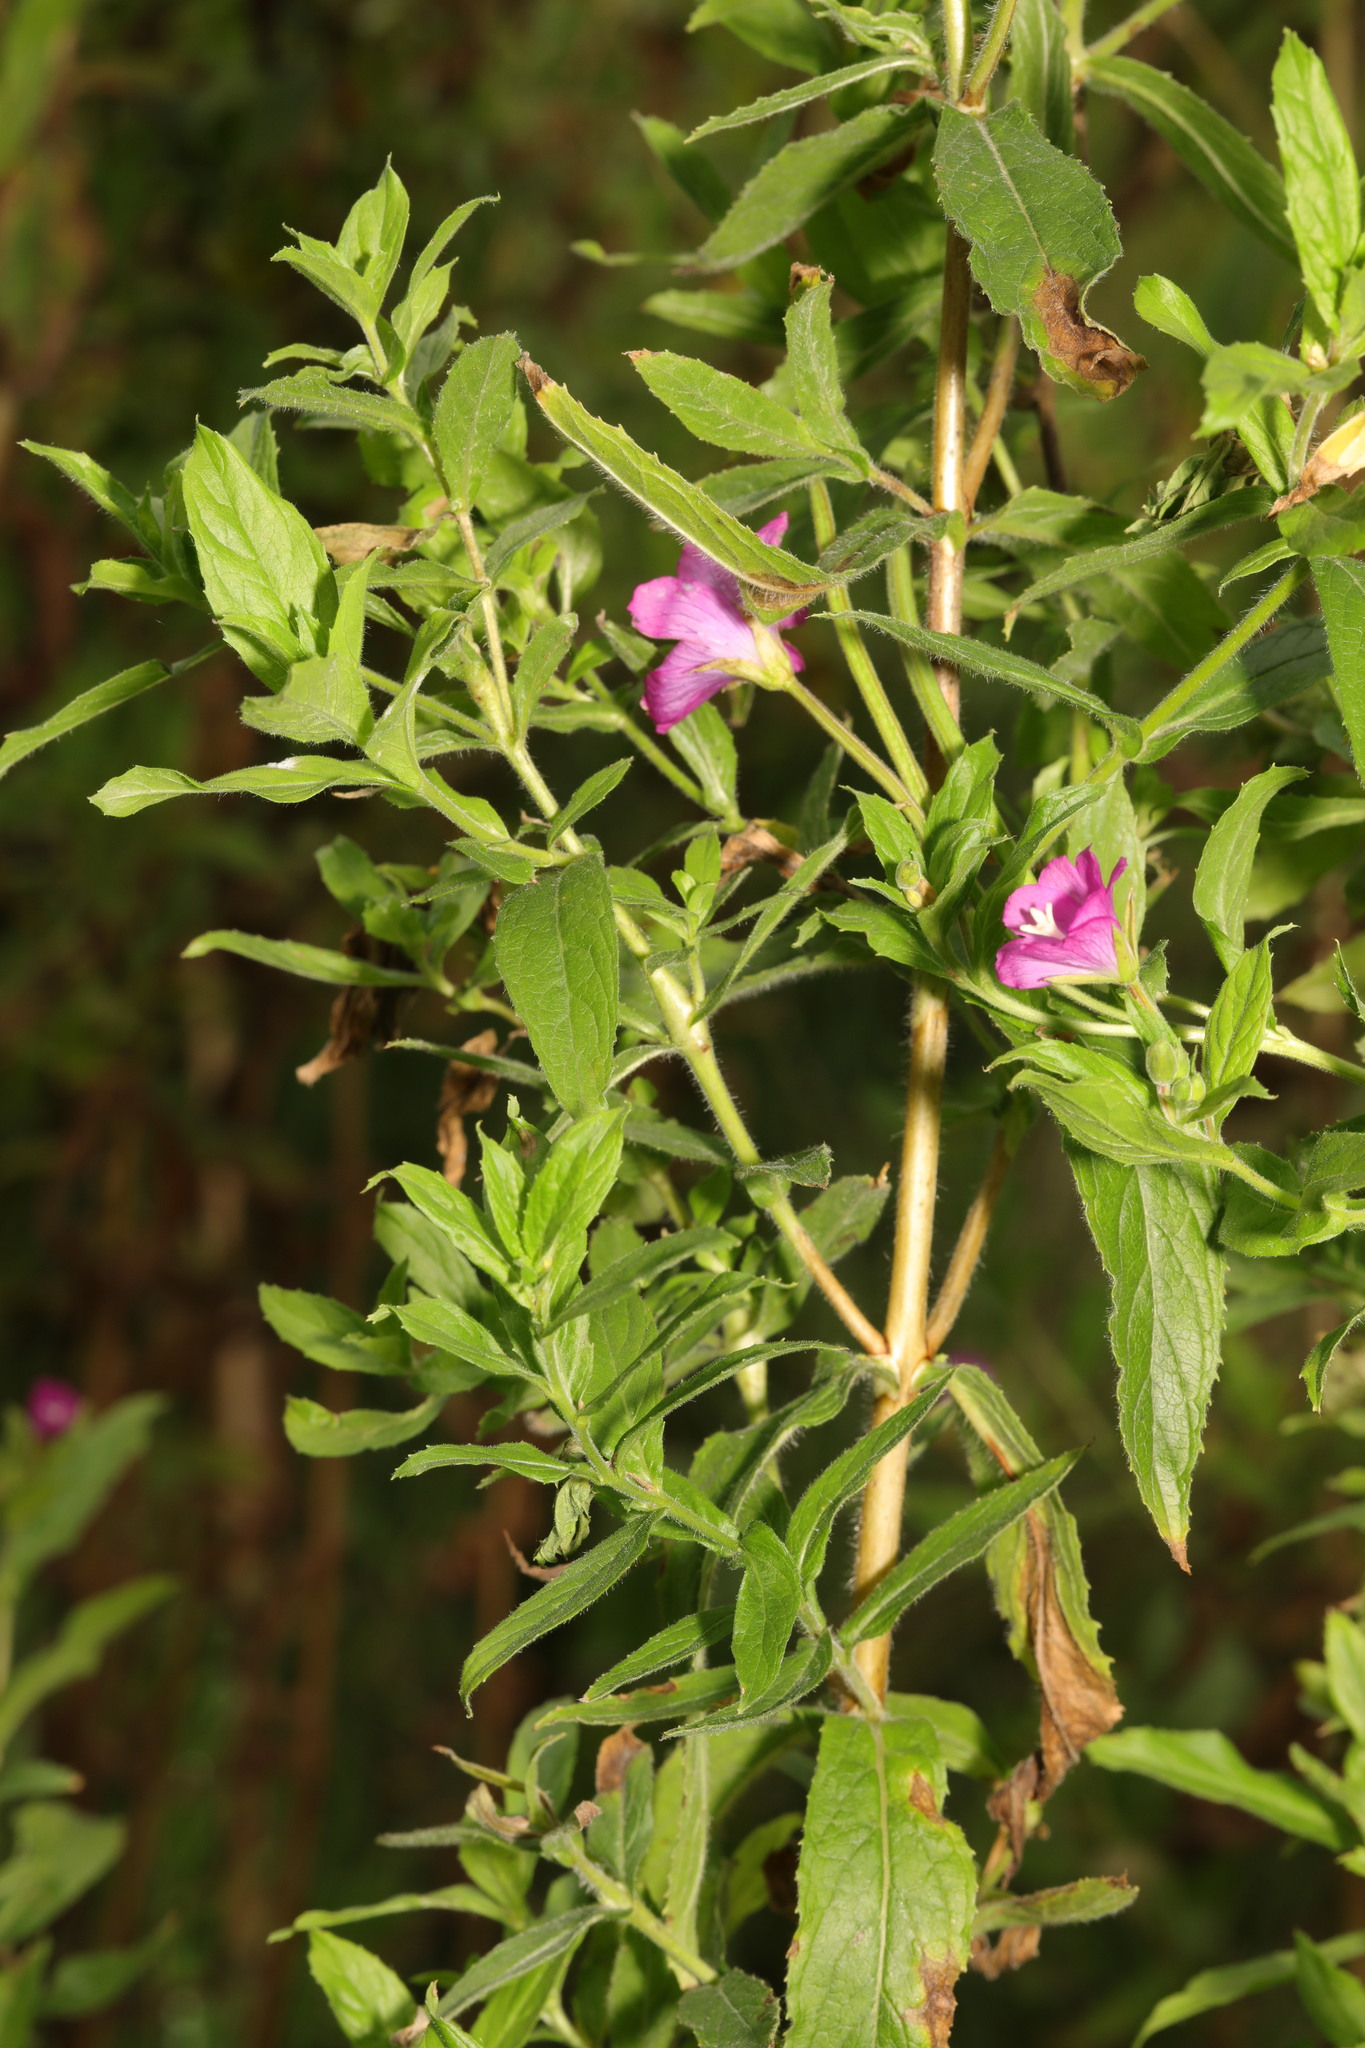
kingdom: Plantae
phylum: Tracheophyta
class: Magnoliopsida
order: Myrtales
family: Onagraceae
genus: Epilobium
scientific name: Epilobium hirsutum
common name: Great willowherb
